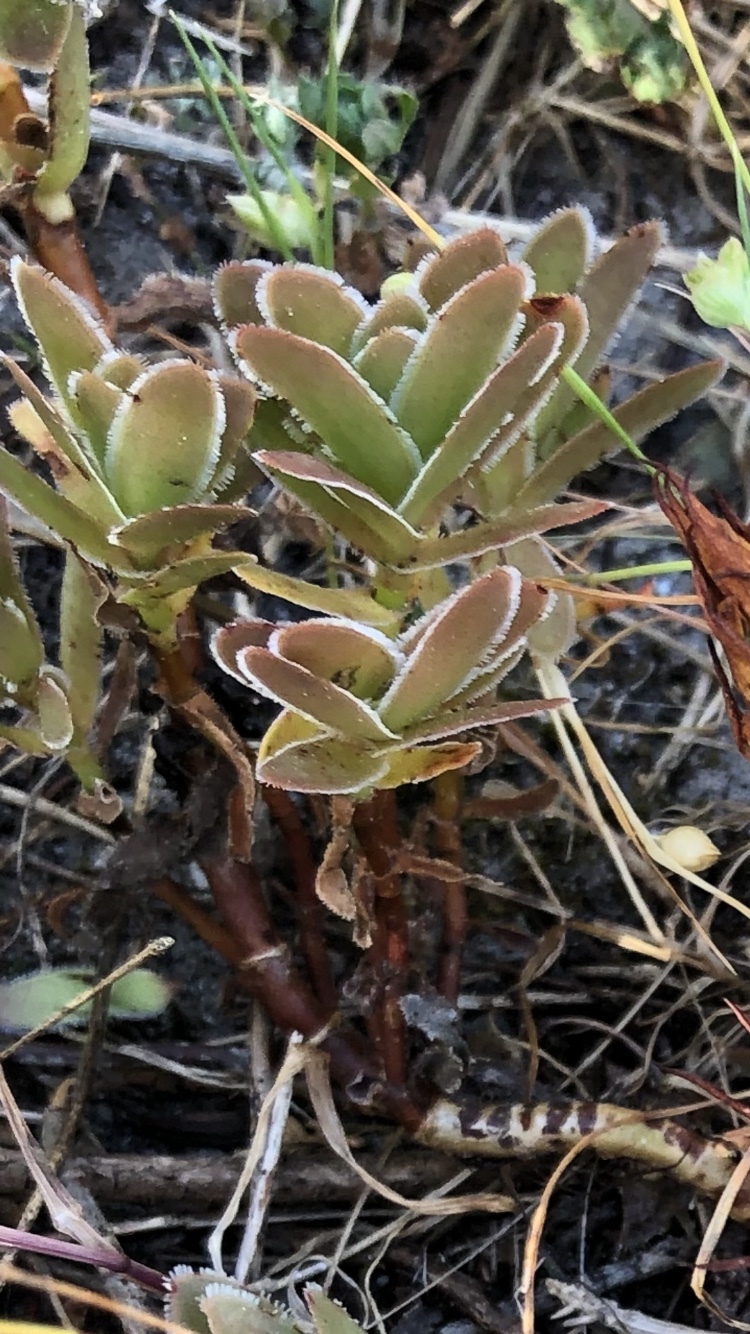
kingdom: Plantae
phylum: Tracheophyta
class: Magnoliopsida
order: Saxifragales
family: Crassulaceae
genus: Crassula
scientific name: Crassula fallax
